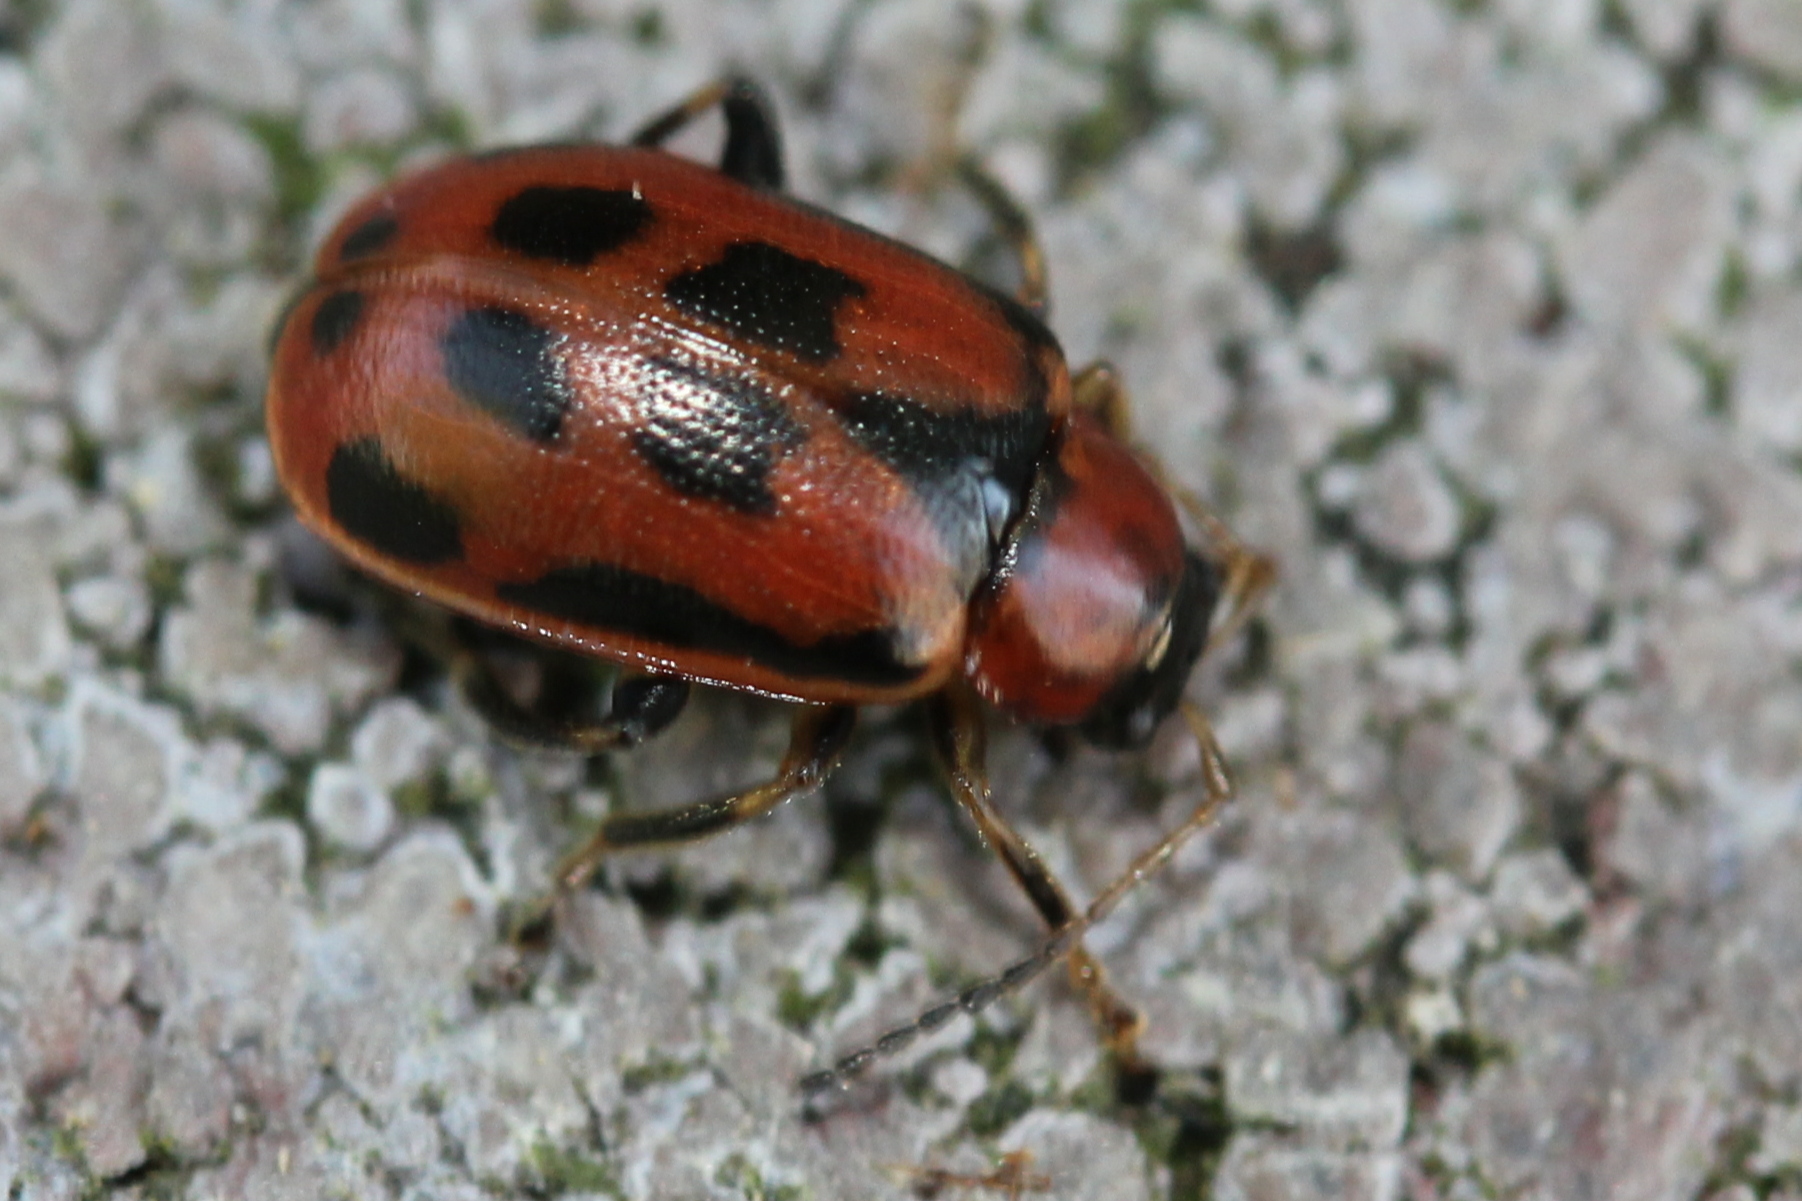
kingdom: Animalia
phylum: Arthropoda
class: Insecta
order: Coleoptera
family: Chrysomelidae
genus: Cerotoma
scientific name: Cerotoma trifurcata
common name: Bean leaf beetle
